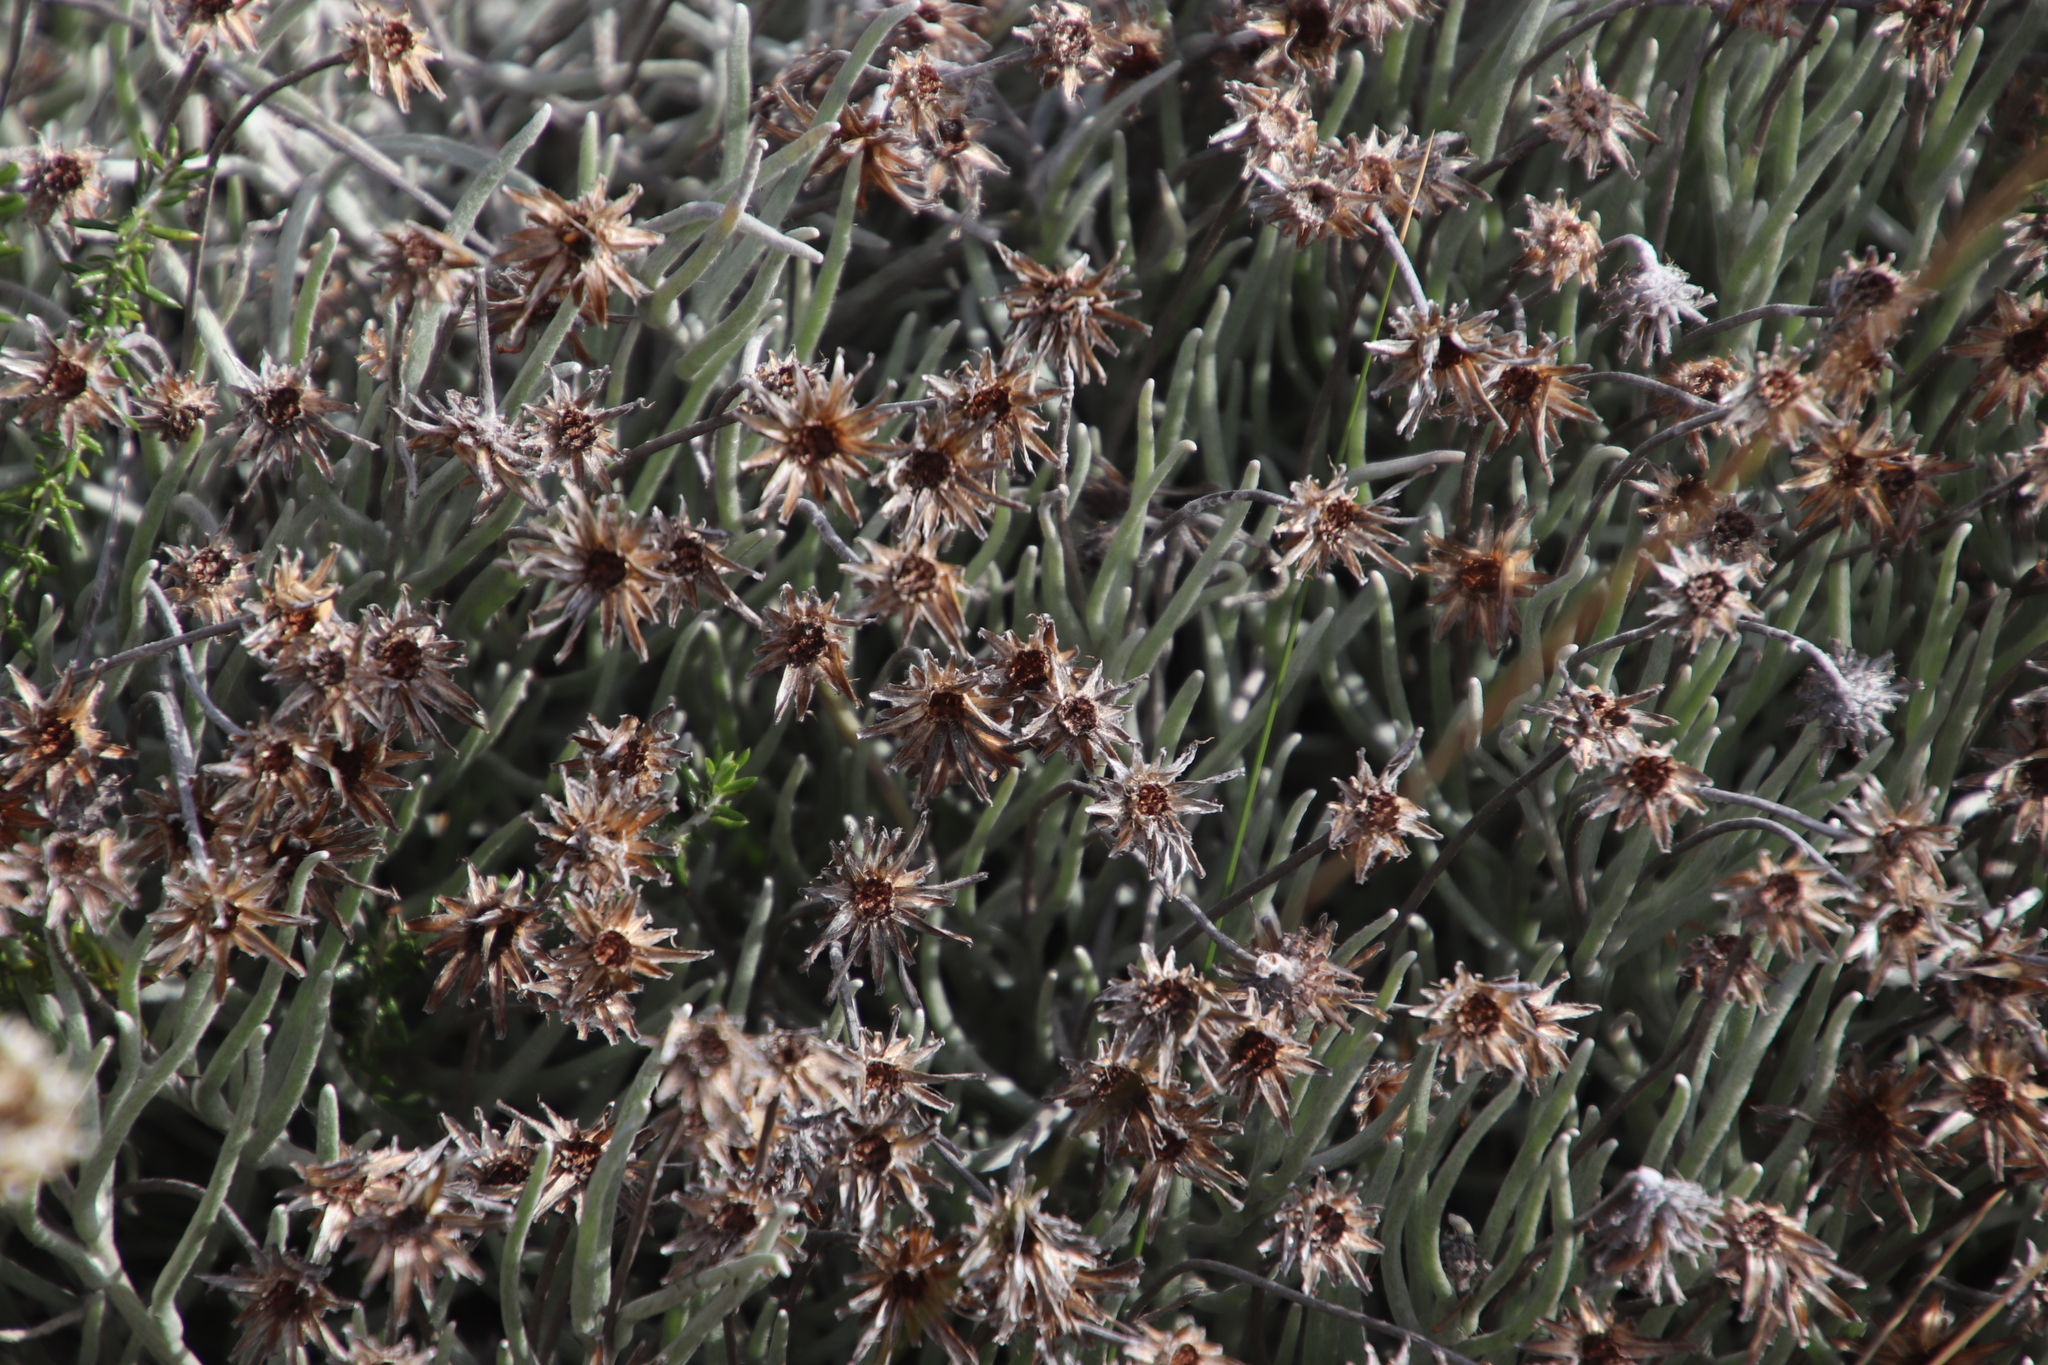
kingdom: Plantae
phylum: Tracheophyta
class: Magnoliopsida
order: Asterales
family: Asteraceae
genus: Syncarpha
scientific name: Syncarpha gnaphaloides
